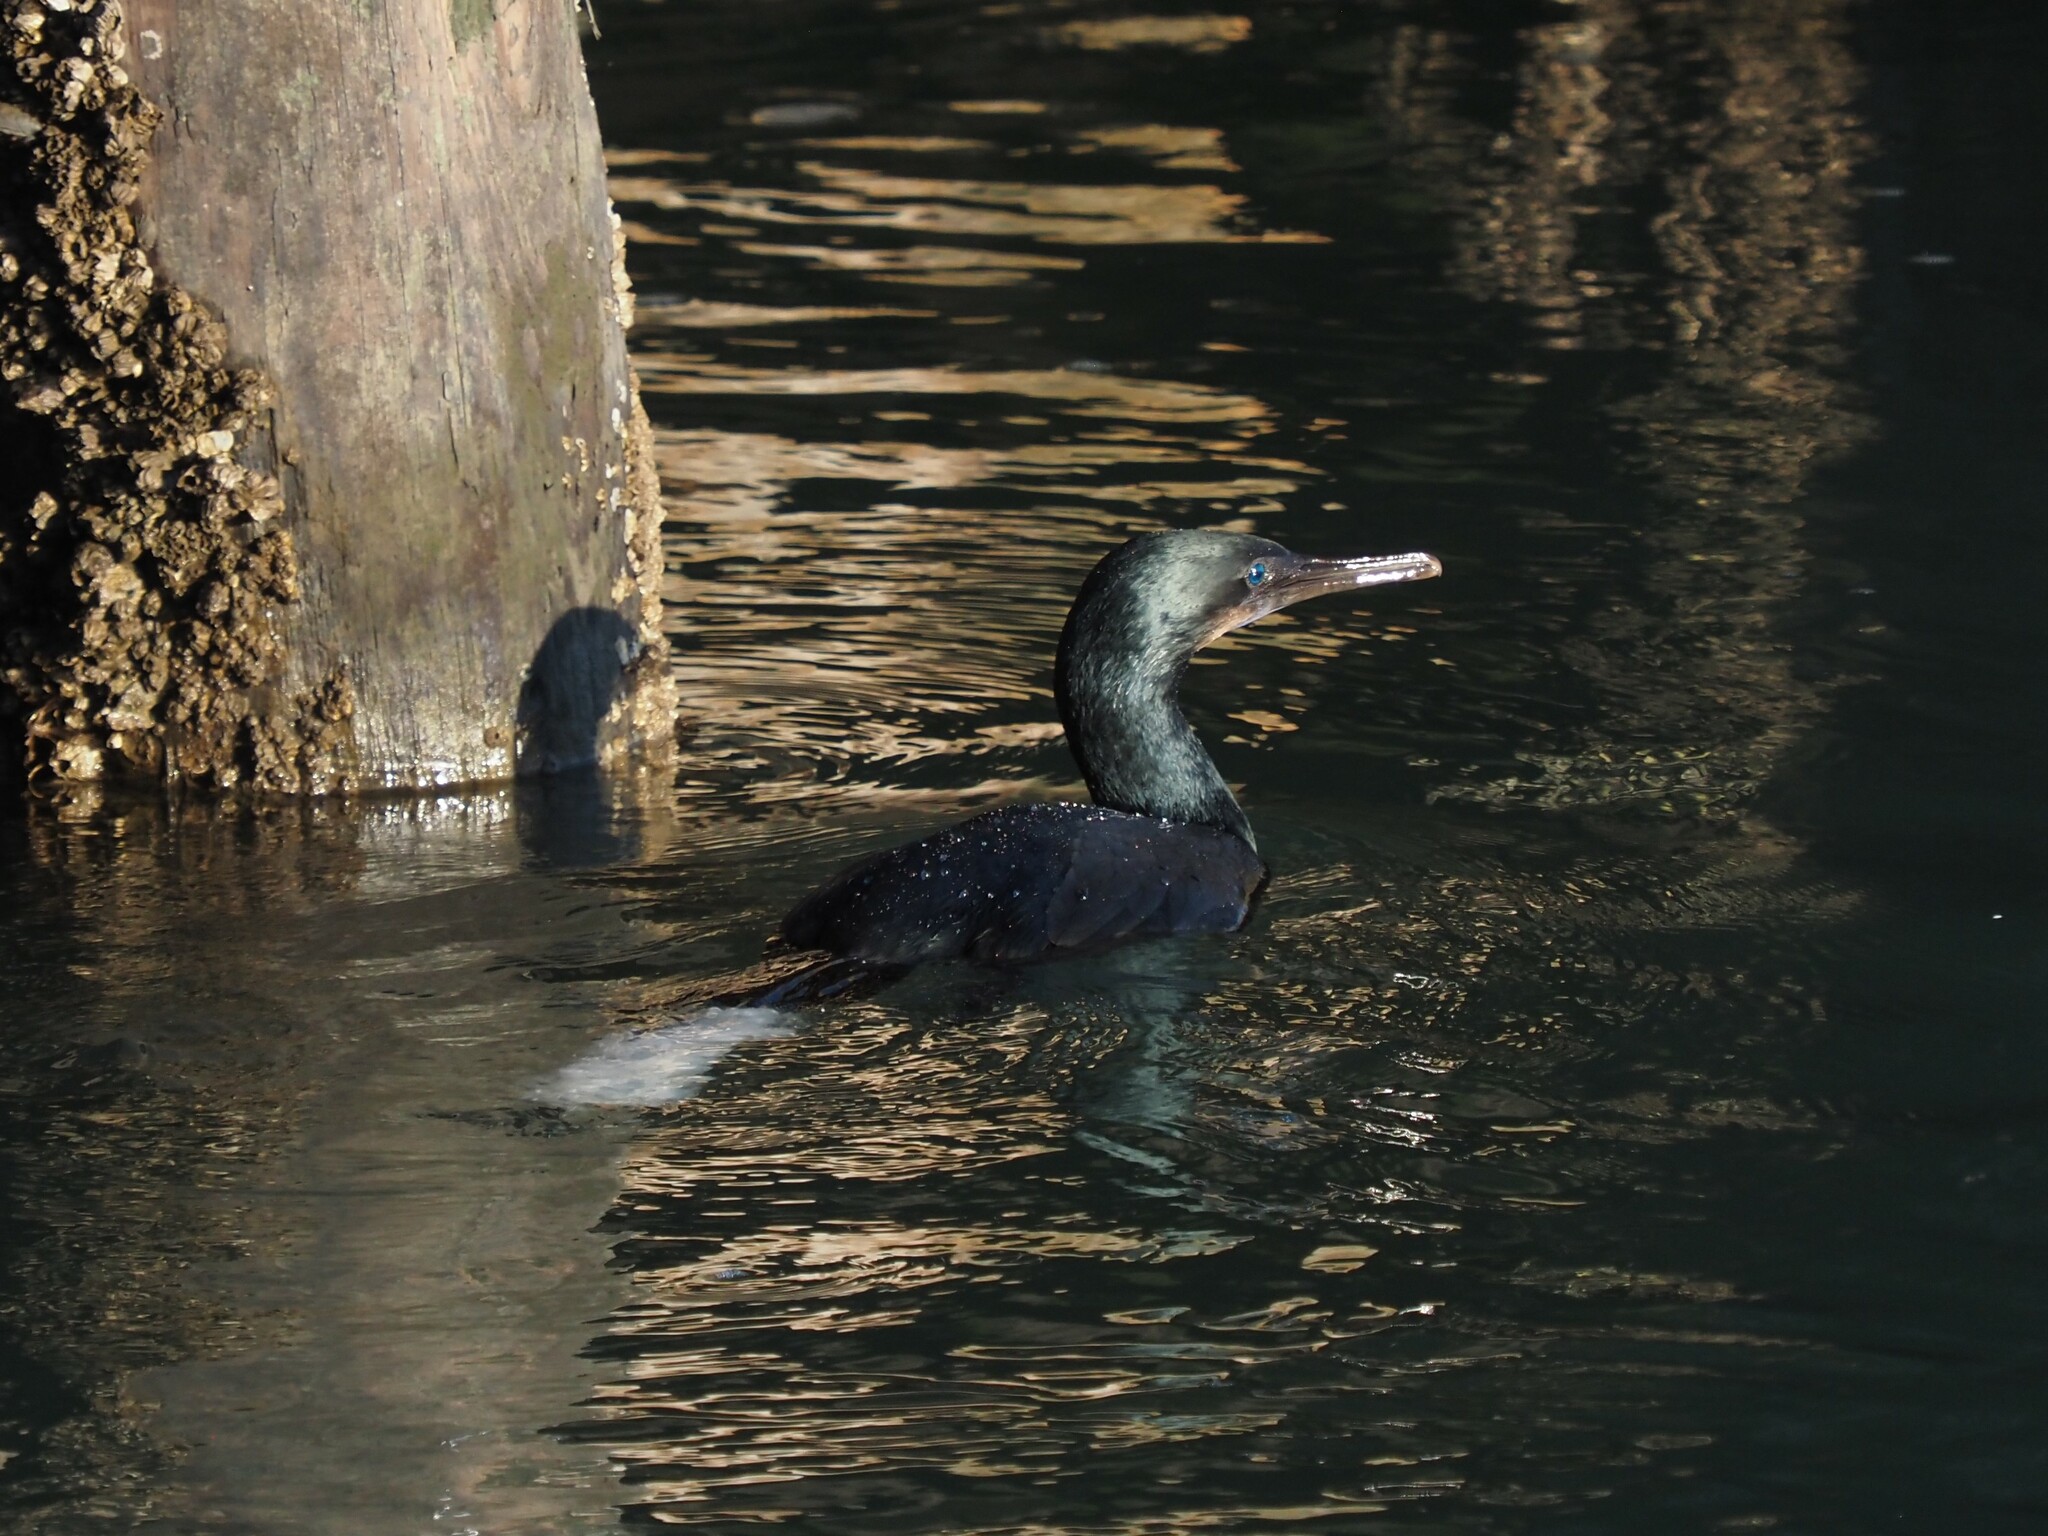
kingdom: Animalia
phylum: Chordata
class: Aves
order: Suliformes
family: Phalacrocoracidae
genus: Urile
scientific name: Urile penicillatus
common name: Brandt's cormorant
